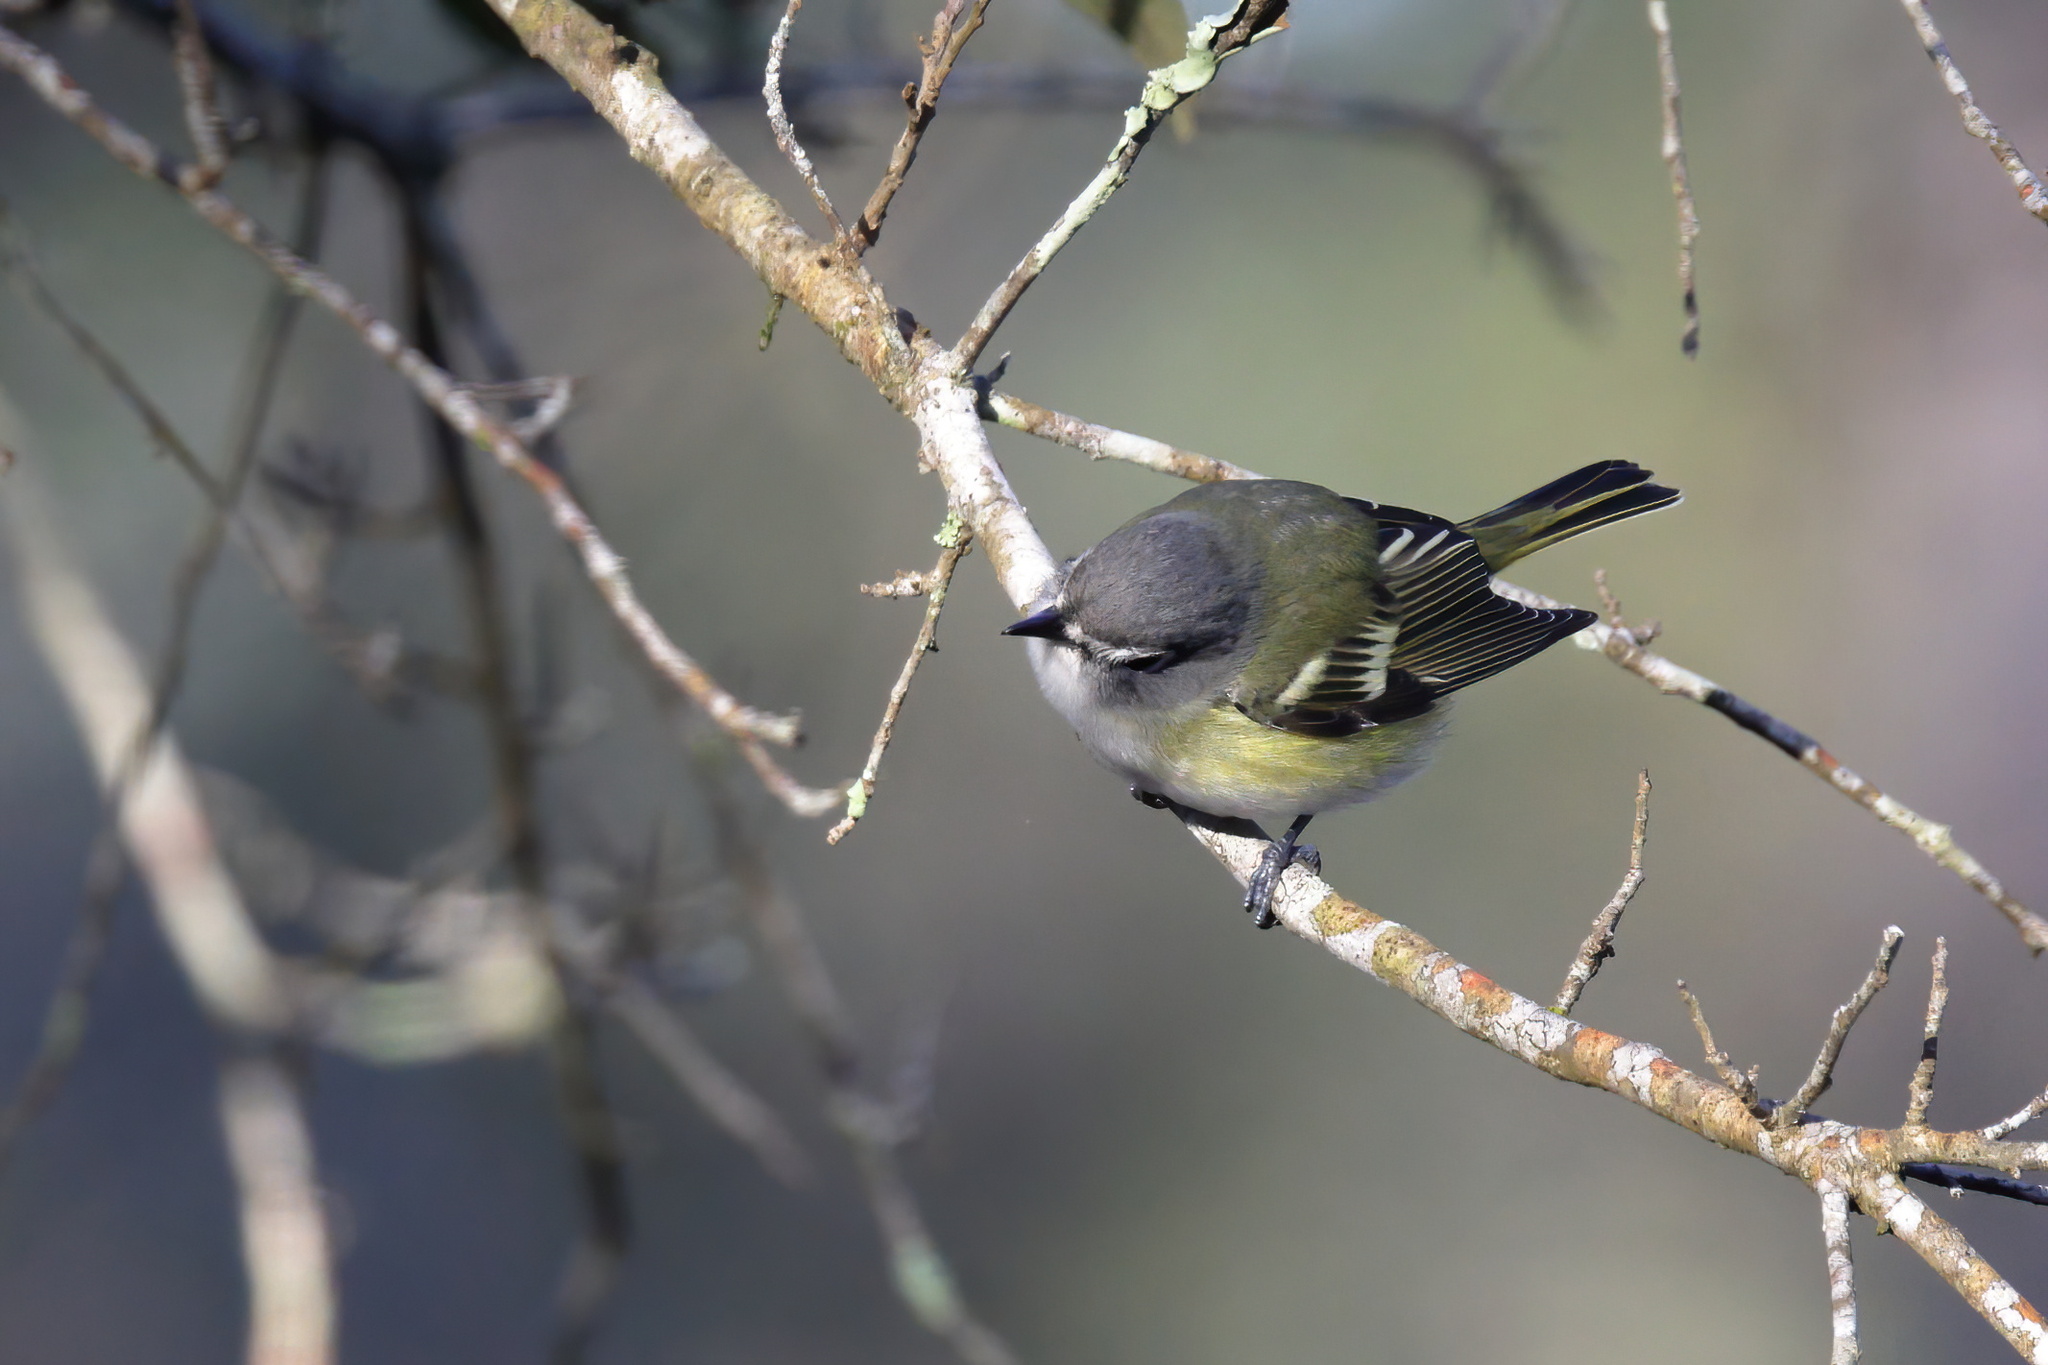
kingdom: Animalia
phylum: Chordata
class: Aves
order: Passeriformes
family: Vireonidae
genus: Vireo
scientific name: Vireo solitarius
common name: Blue-headed vireo
